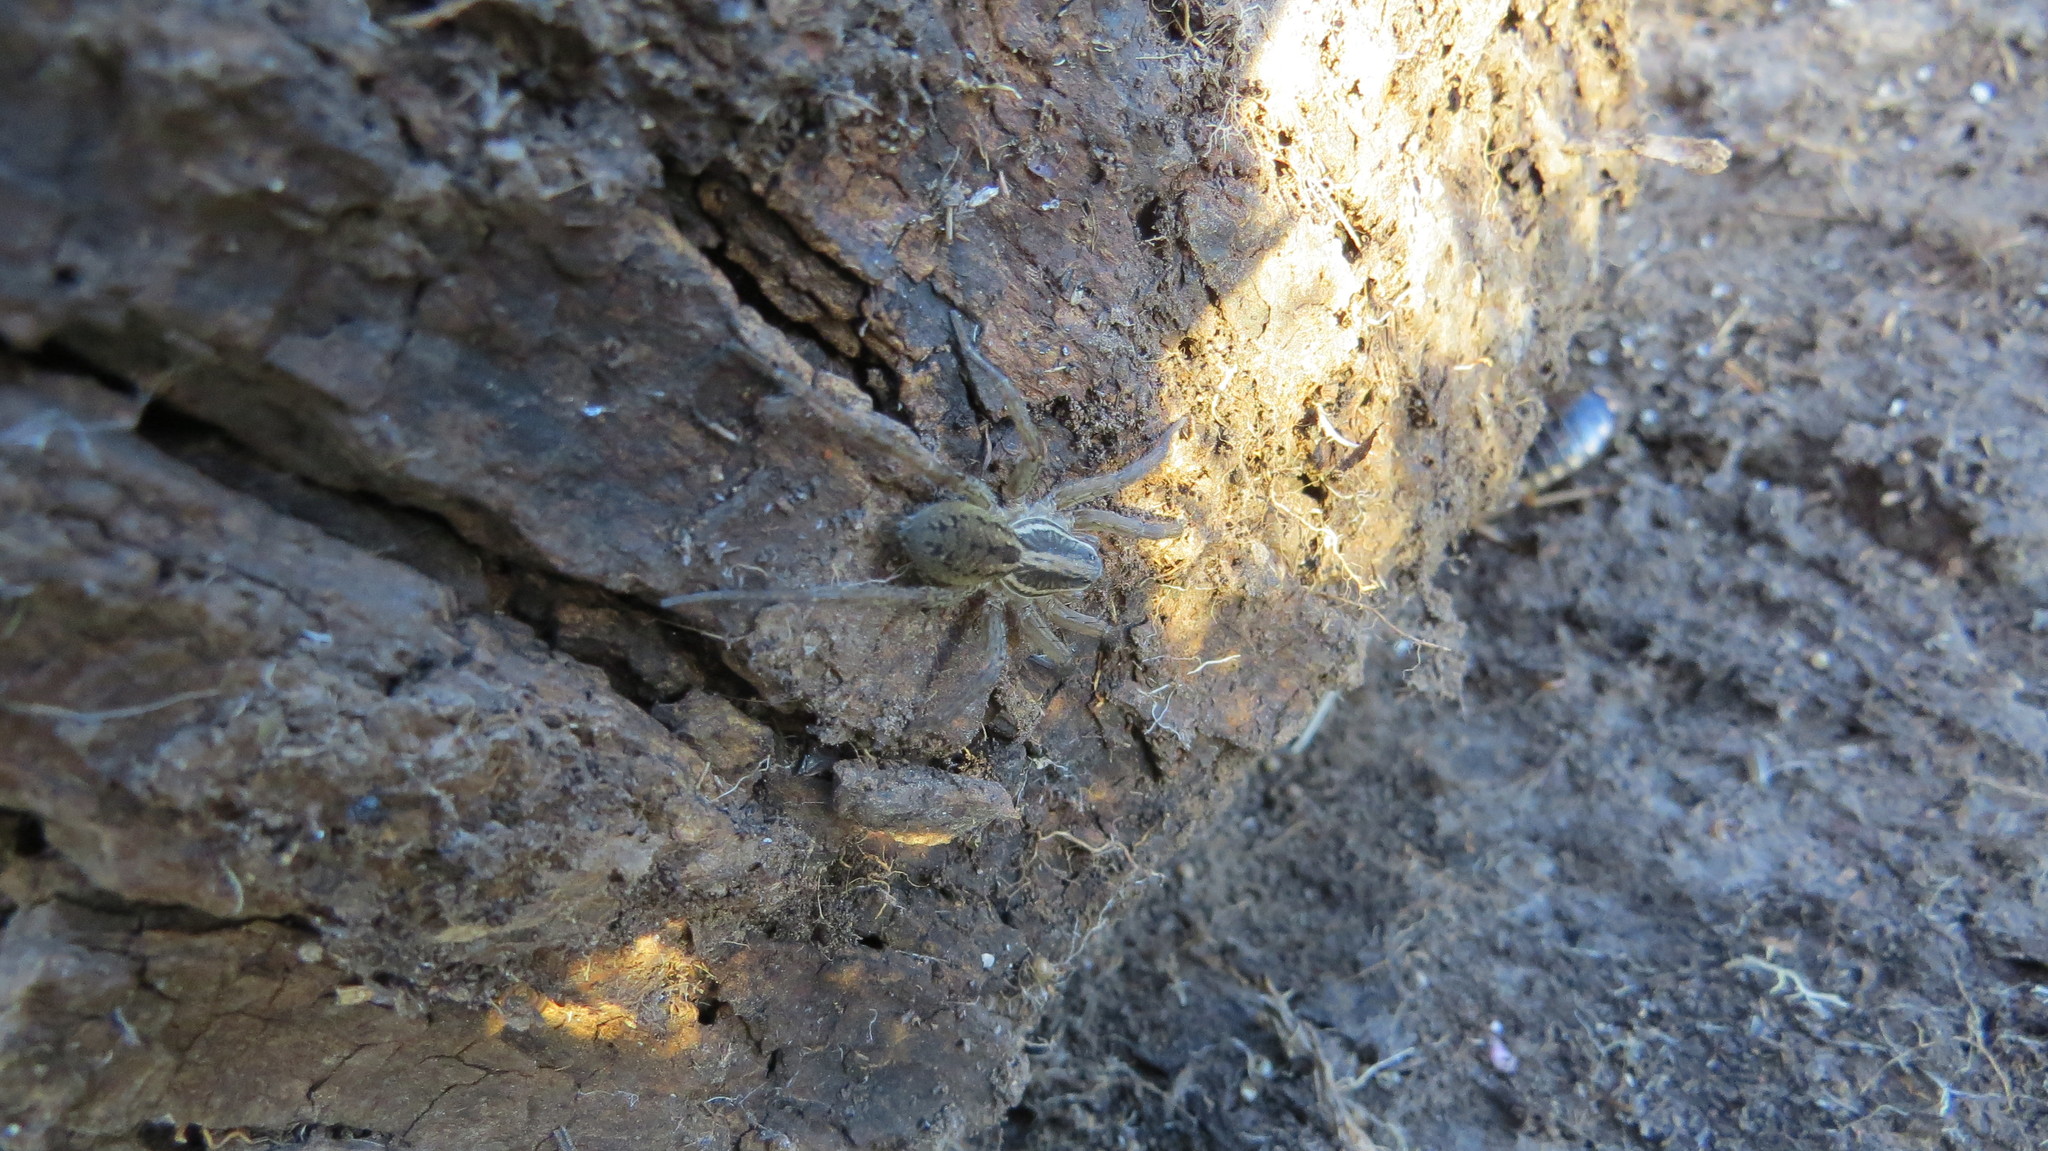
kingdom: Animalia
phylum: Arthropoda
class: Arachnida
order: Araneae
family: Lycosidae
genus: Alopecosa
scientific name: Alopecosa moesta
